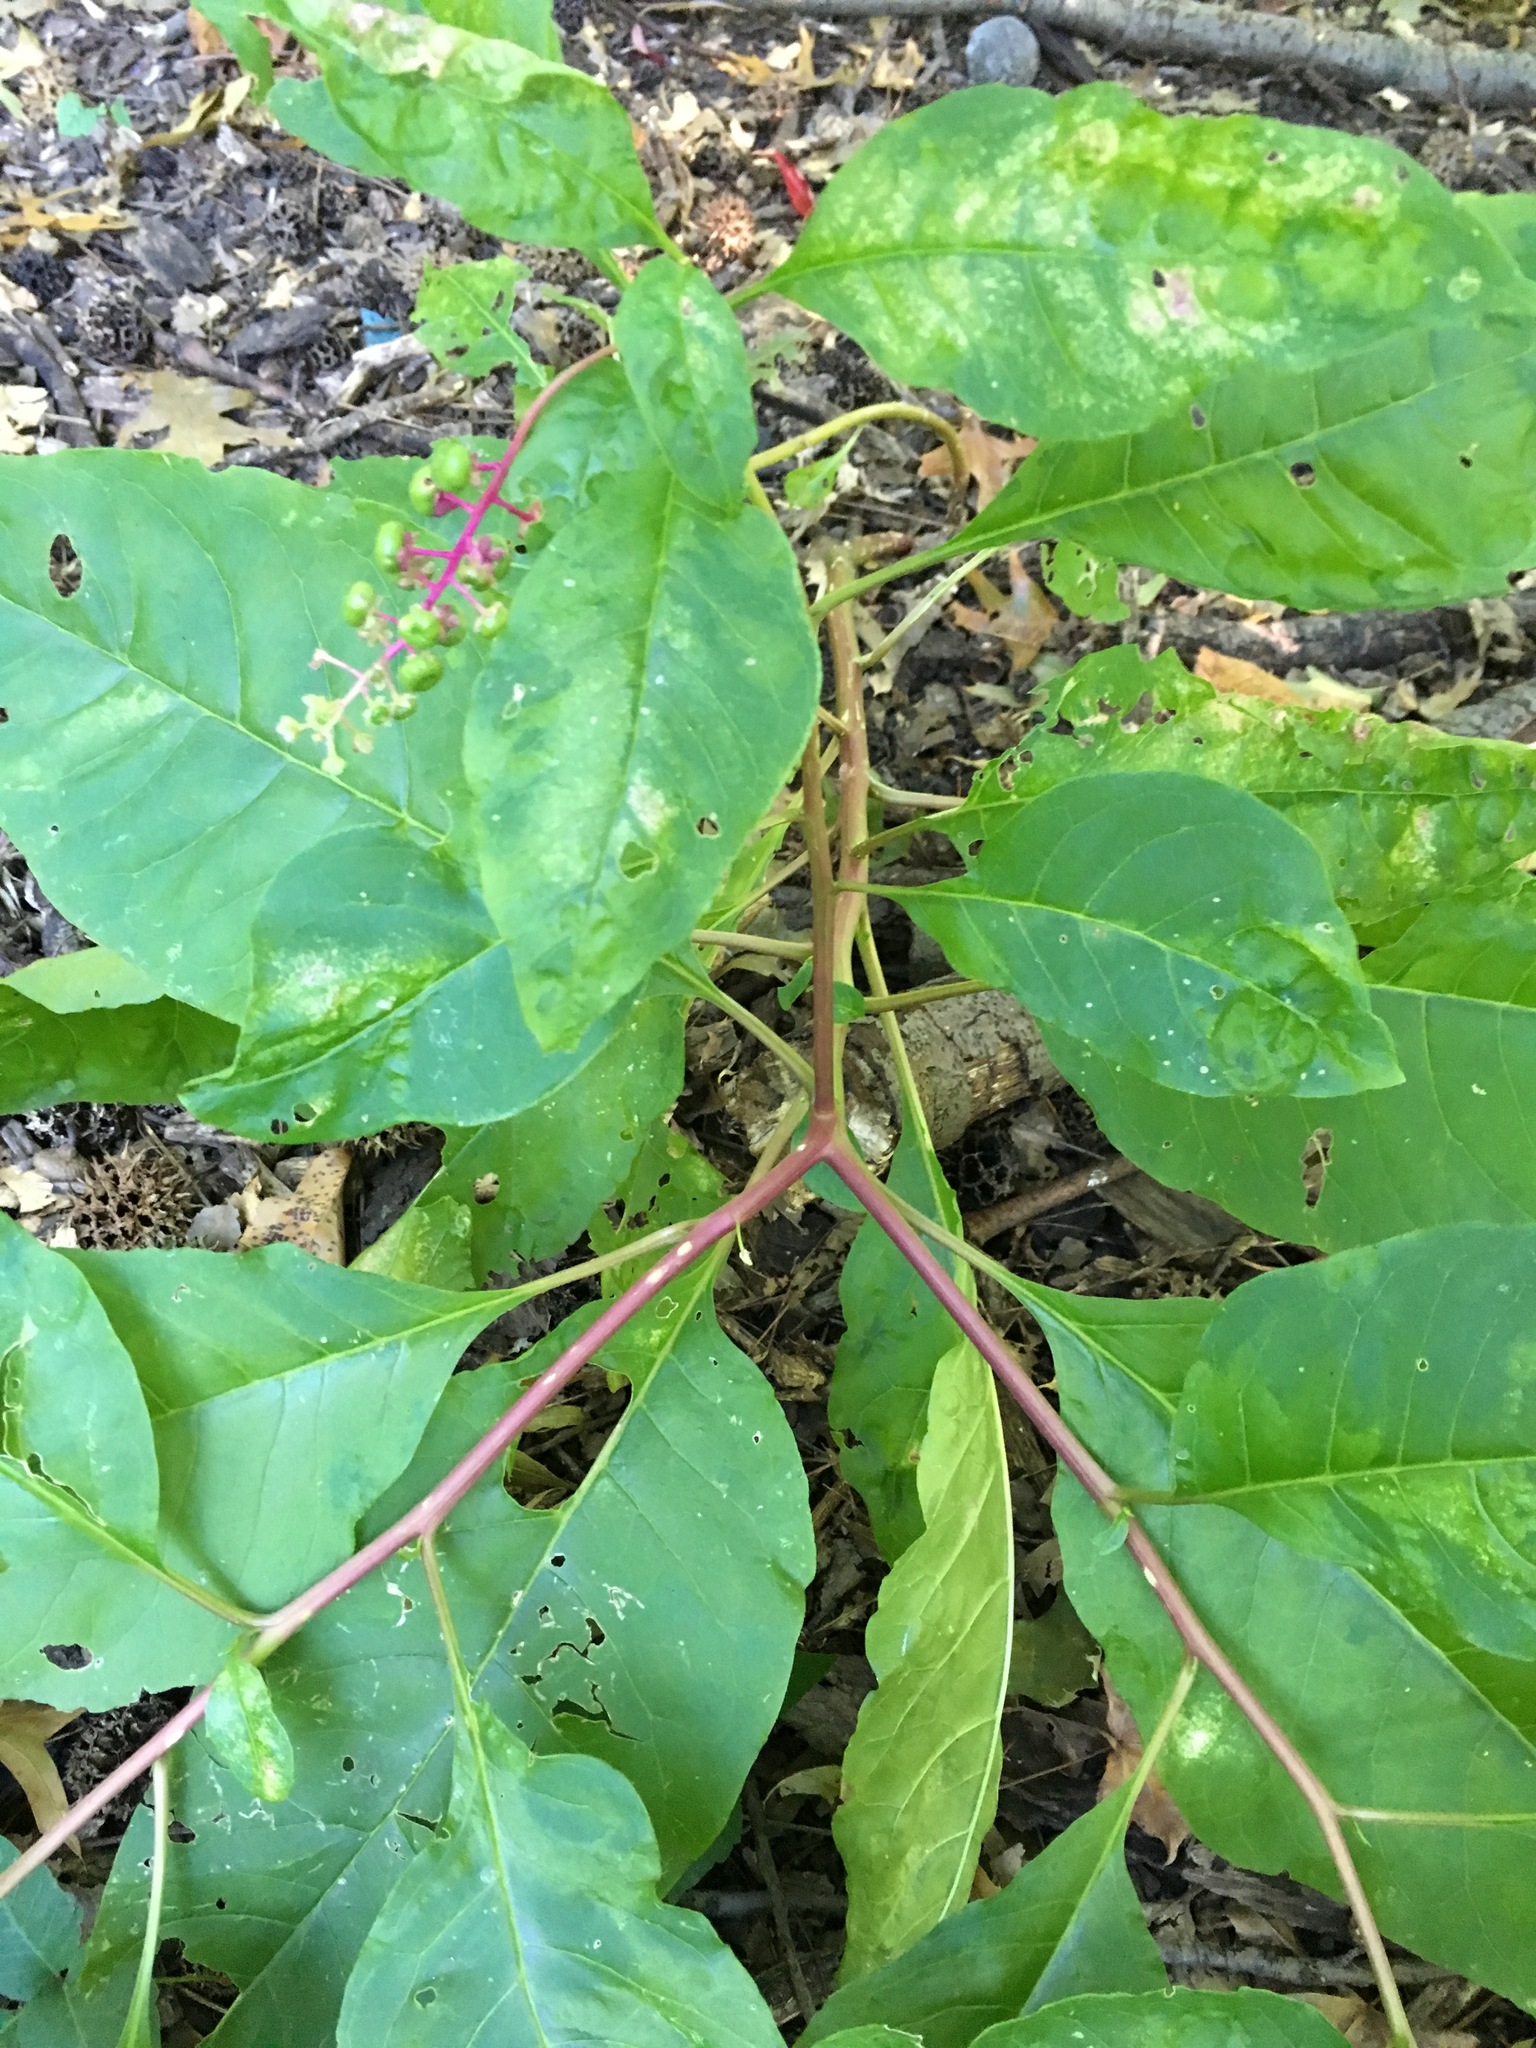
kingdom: Plantae
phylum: Tracheophyta
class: Magnoliopsida
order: Caryophyllales
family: Phytolaccaceae
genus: Phytolacca
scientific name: Phytolacca americana
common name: American pokeweed
